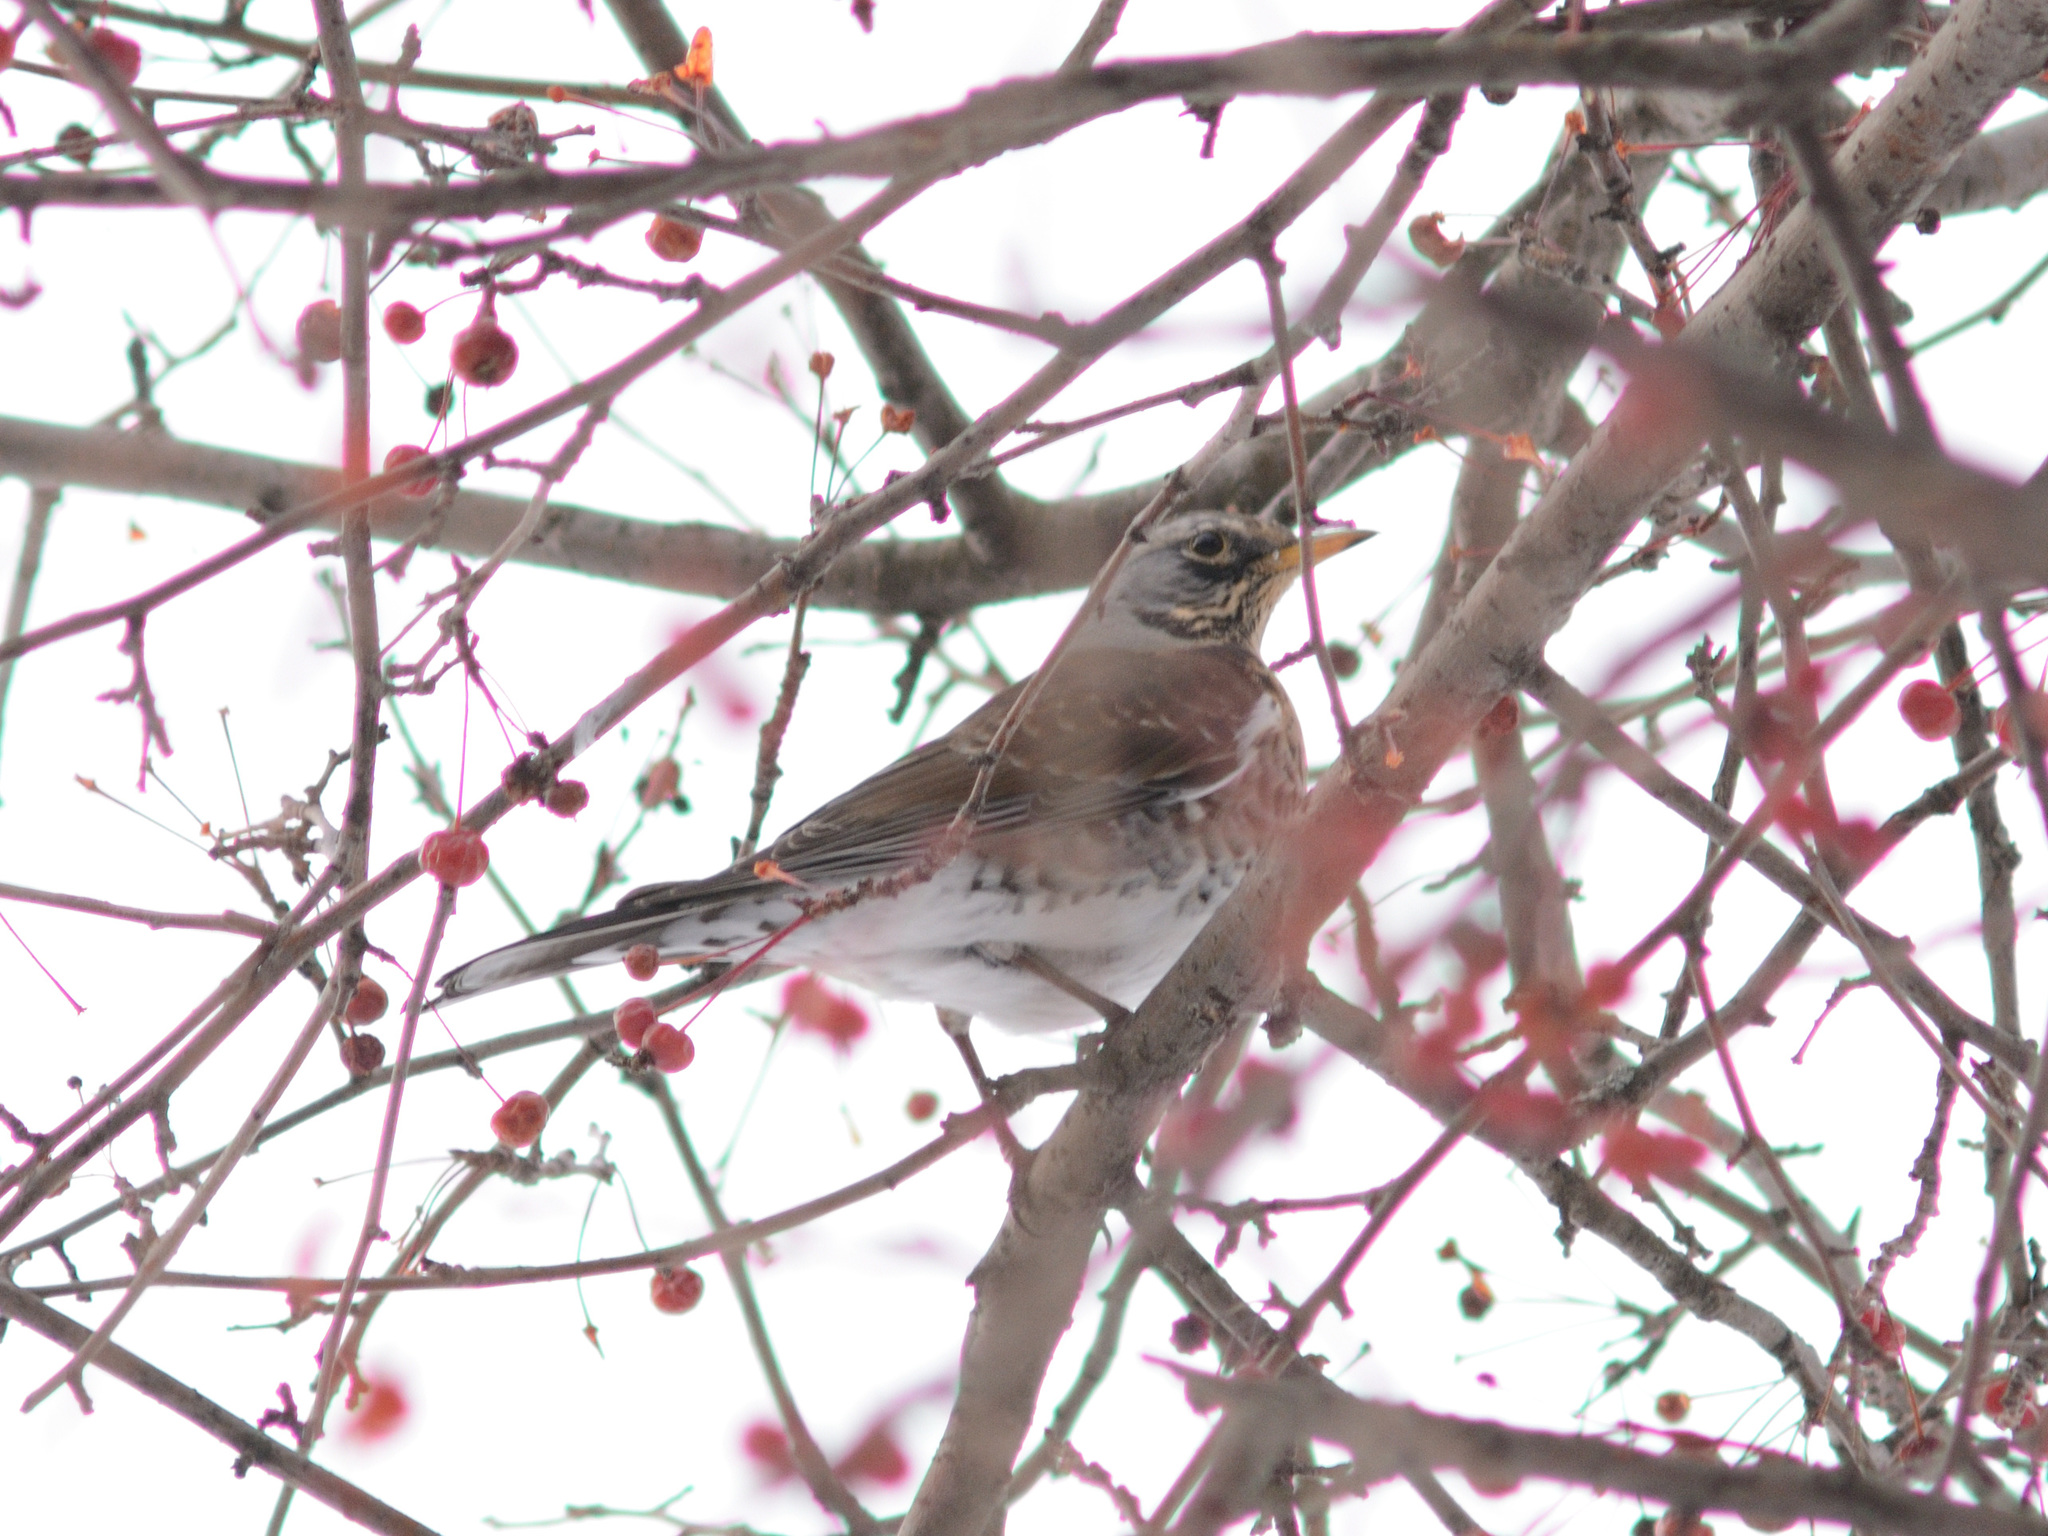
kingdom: Animalia
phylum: Chordata
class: Aves
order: Passeriformes
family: Turdidae
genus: Turdus
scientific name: Turdus pilaris
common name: Fieldfare
